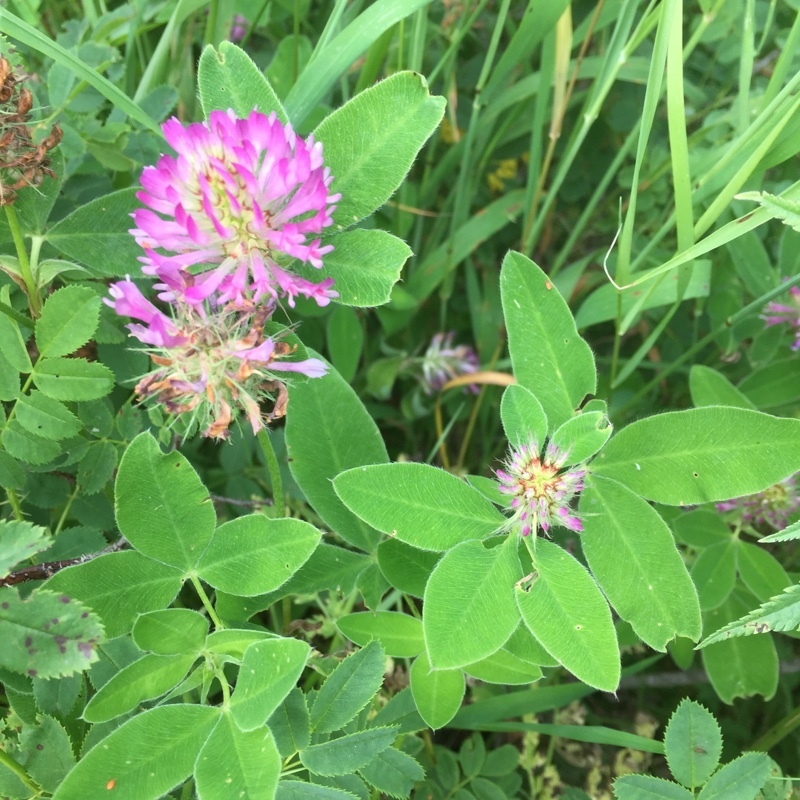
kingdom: Plantae
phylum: Tracheophyta
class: Magnoliopsida
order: Fabales
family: Fabaceae
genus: Trifolium
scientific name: Trifolium medium
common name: Zigzag clover
